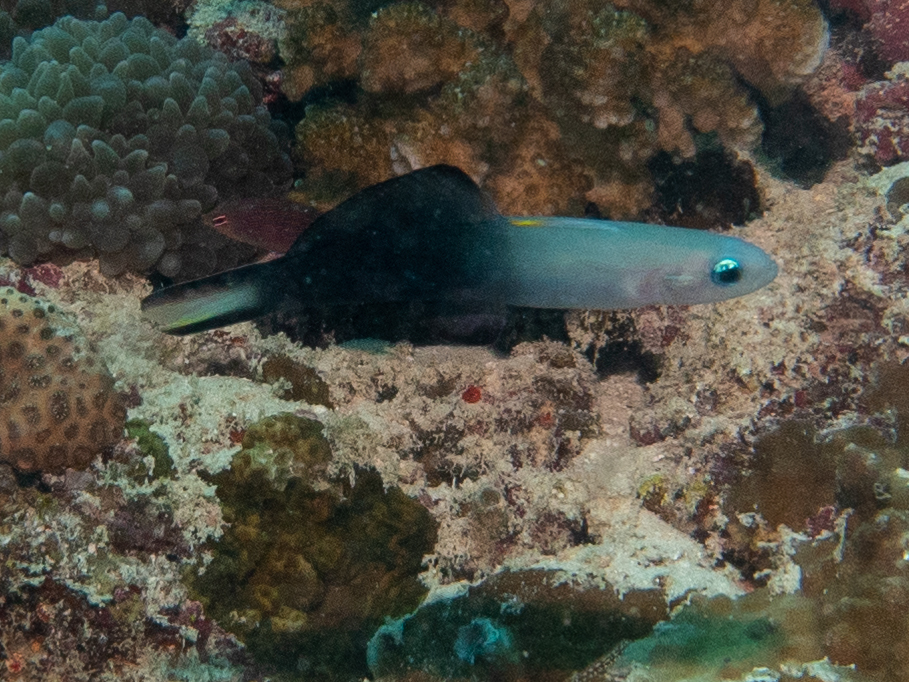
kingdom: Animalia
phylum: Chordata
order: Perciformes
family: Microdesmidae
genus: Ptereleotris
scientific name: Ptereleotris evides
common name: Blackfin dartfish
